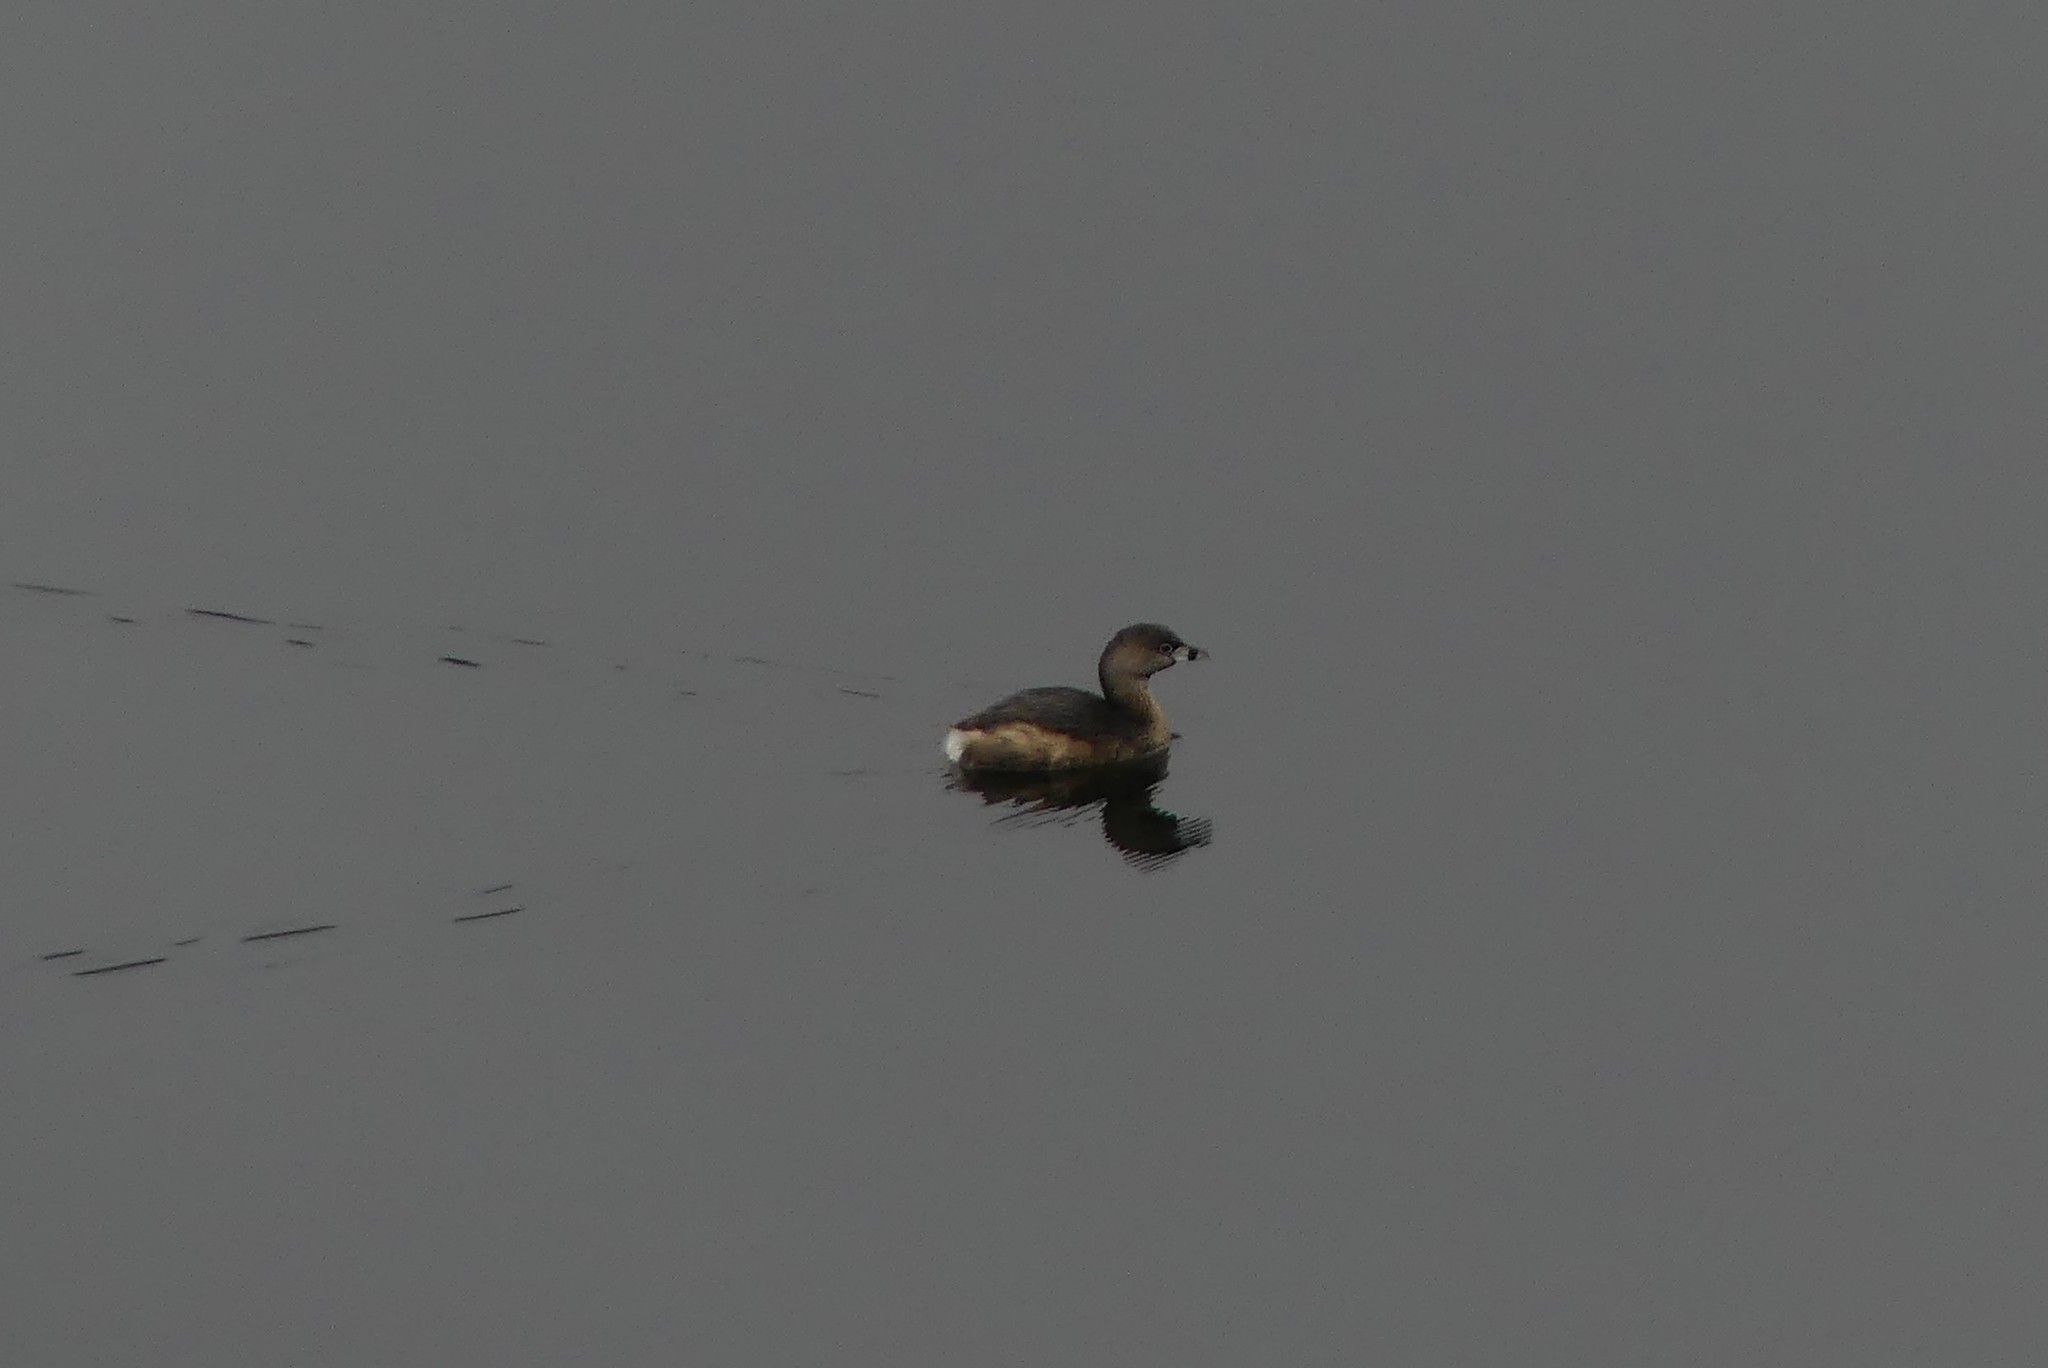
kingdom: Animalia
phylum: Chordata
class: Aves
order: Podicipediformes
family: Podicipedidae
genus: Podilymbus
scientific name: Podilymbus podiceps
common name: Pied-billed grebe
